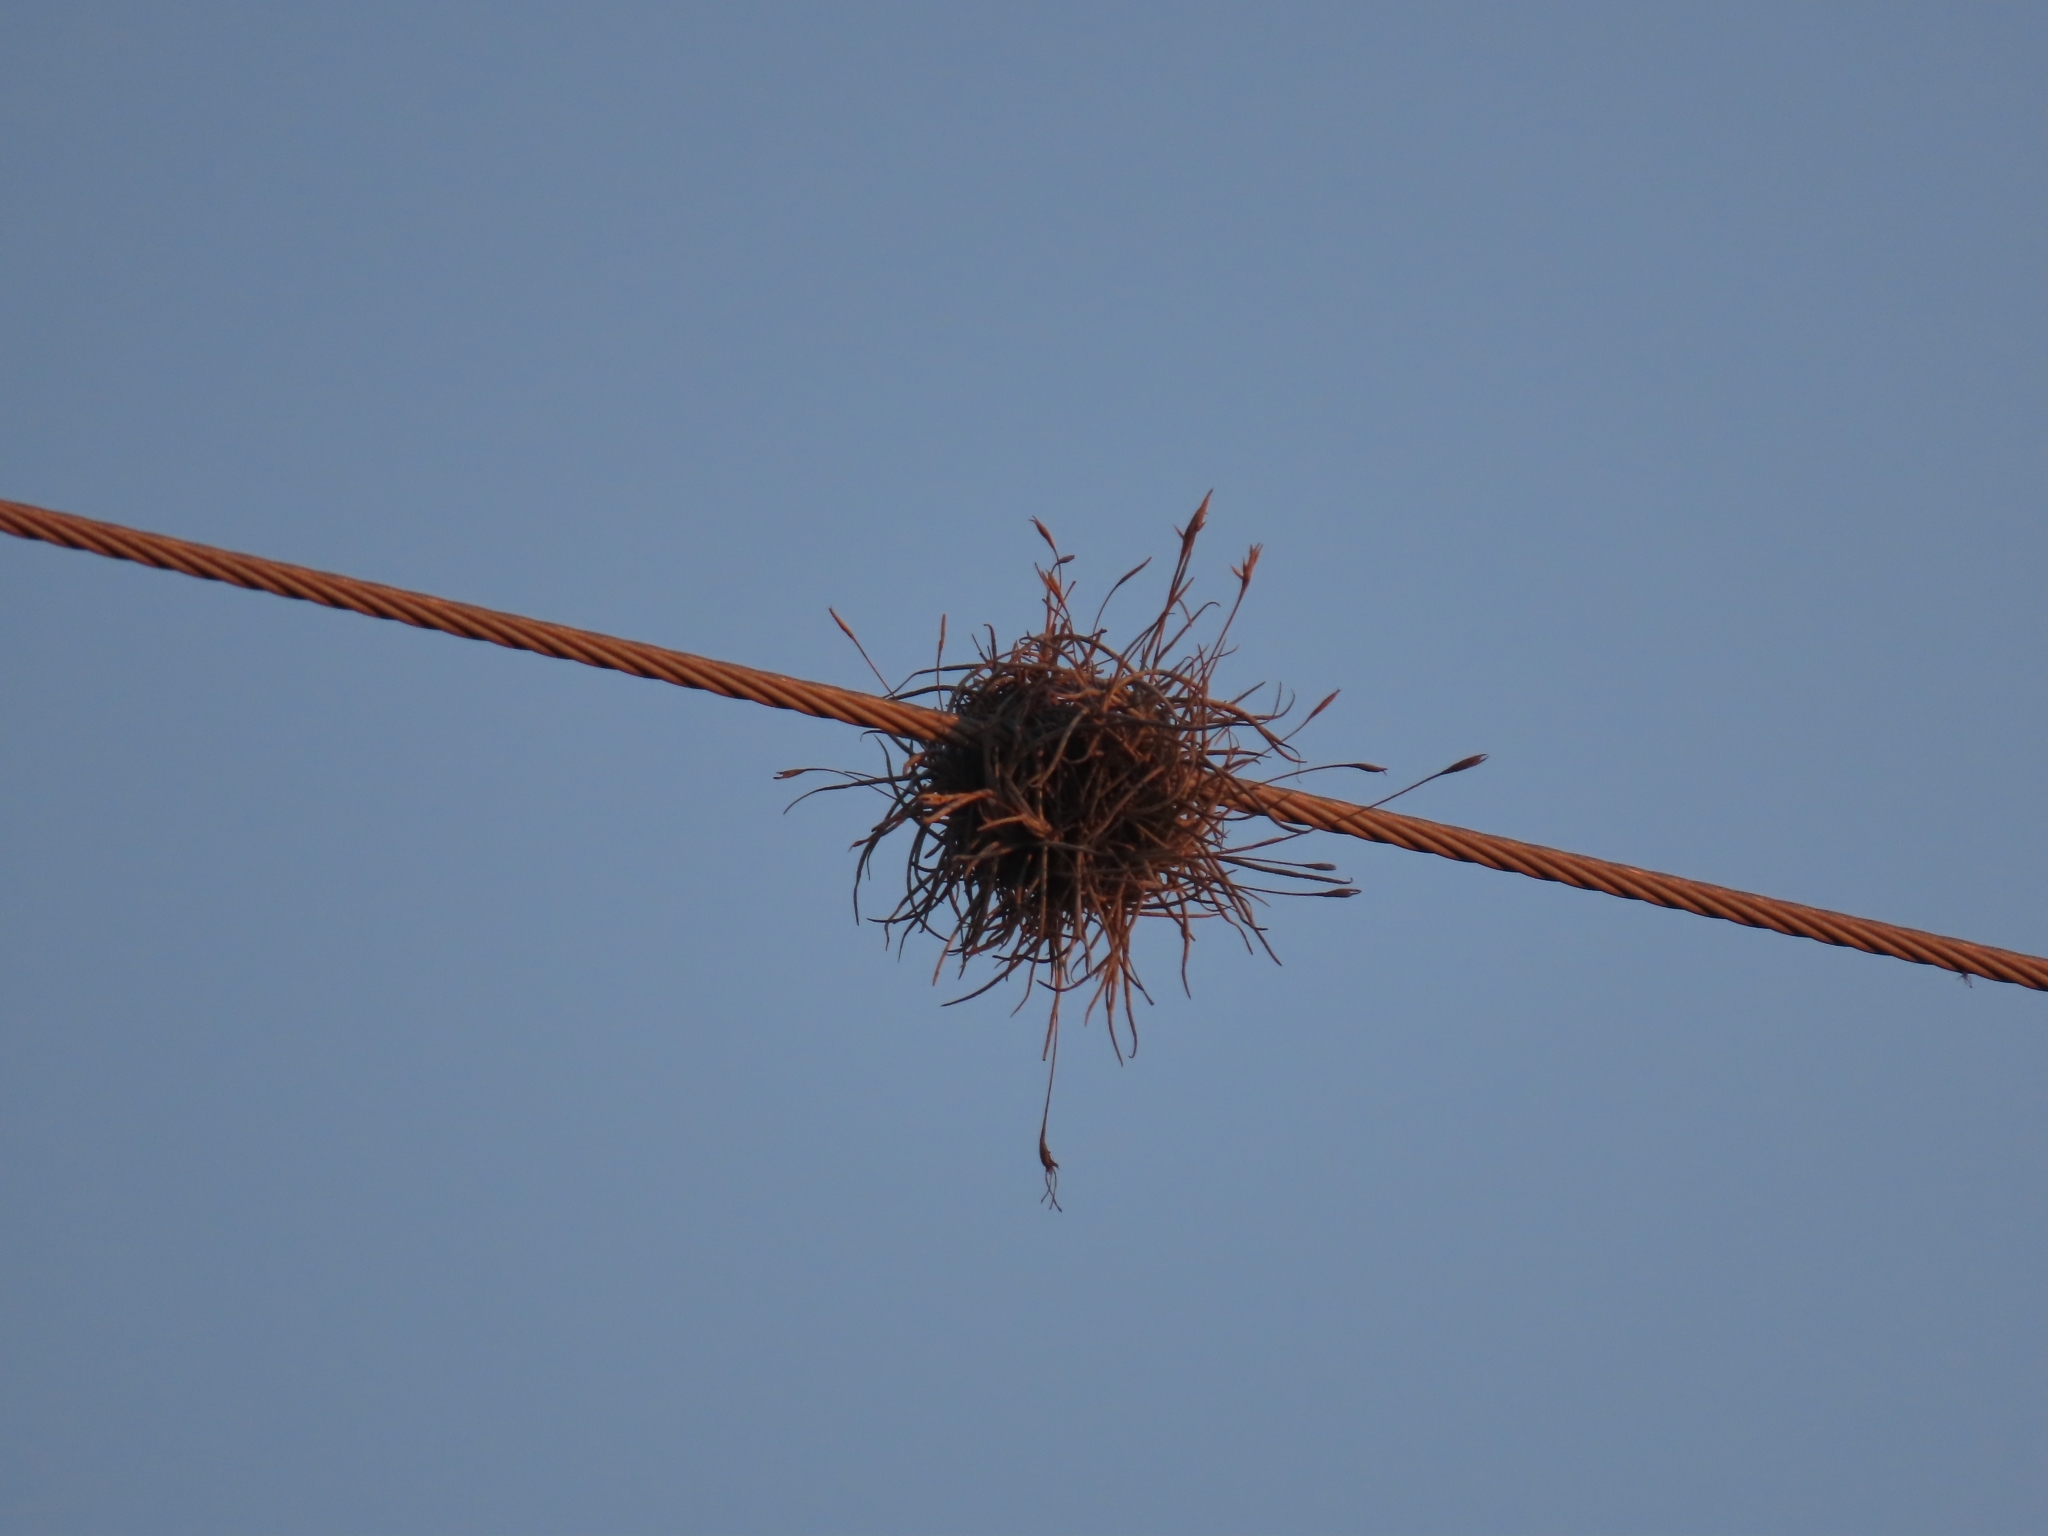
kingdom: Plantae
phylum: Tracheophyta
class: Liliopsida
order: Poales
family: Bromeliaceae
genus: Tillandsia
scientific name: Tillandsia recurvata
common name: Small ballmoss
